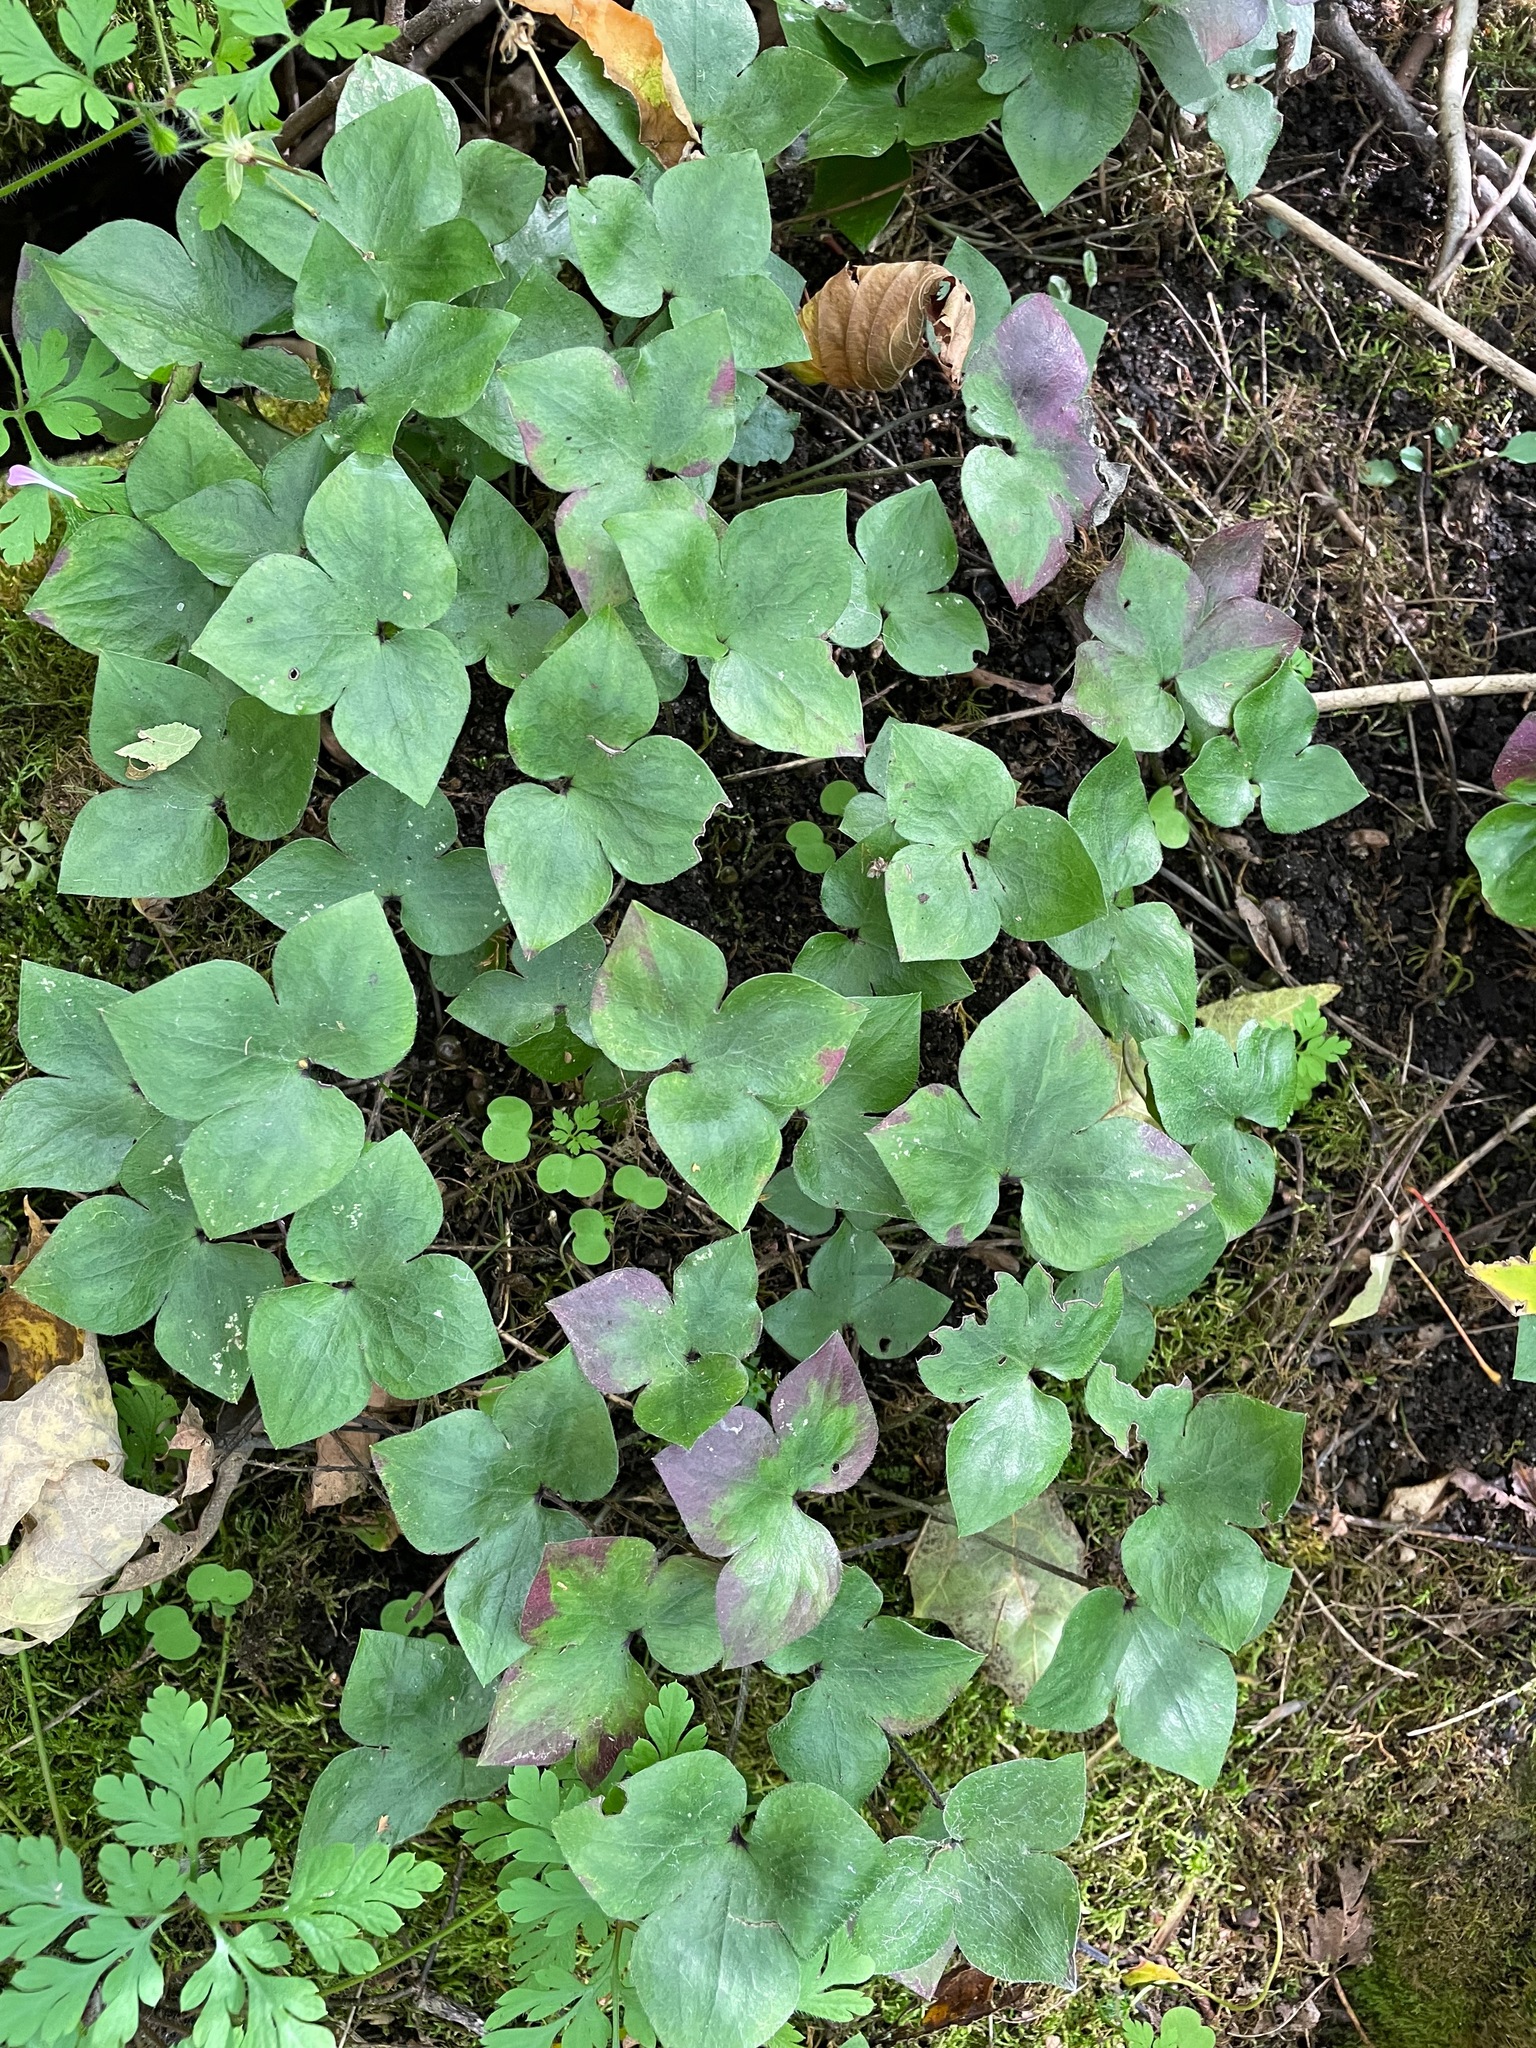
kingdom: Plantae
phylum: Tracheophyta
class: Magnoliopsida
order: Ranunculales
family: Ranunculaceae
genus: Hepatica
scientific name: Hepatica acutiloba
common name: Sharp-lobed hepatica
